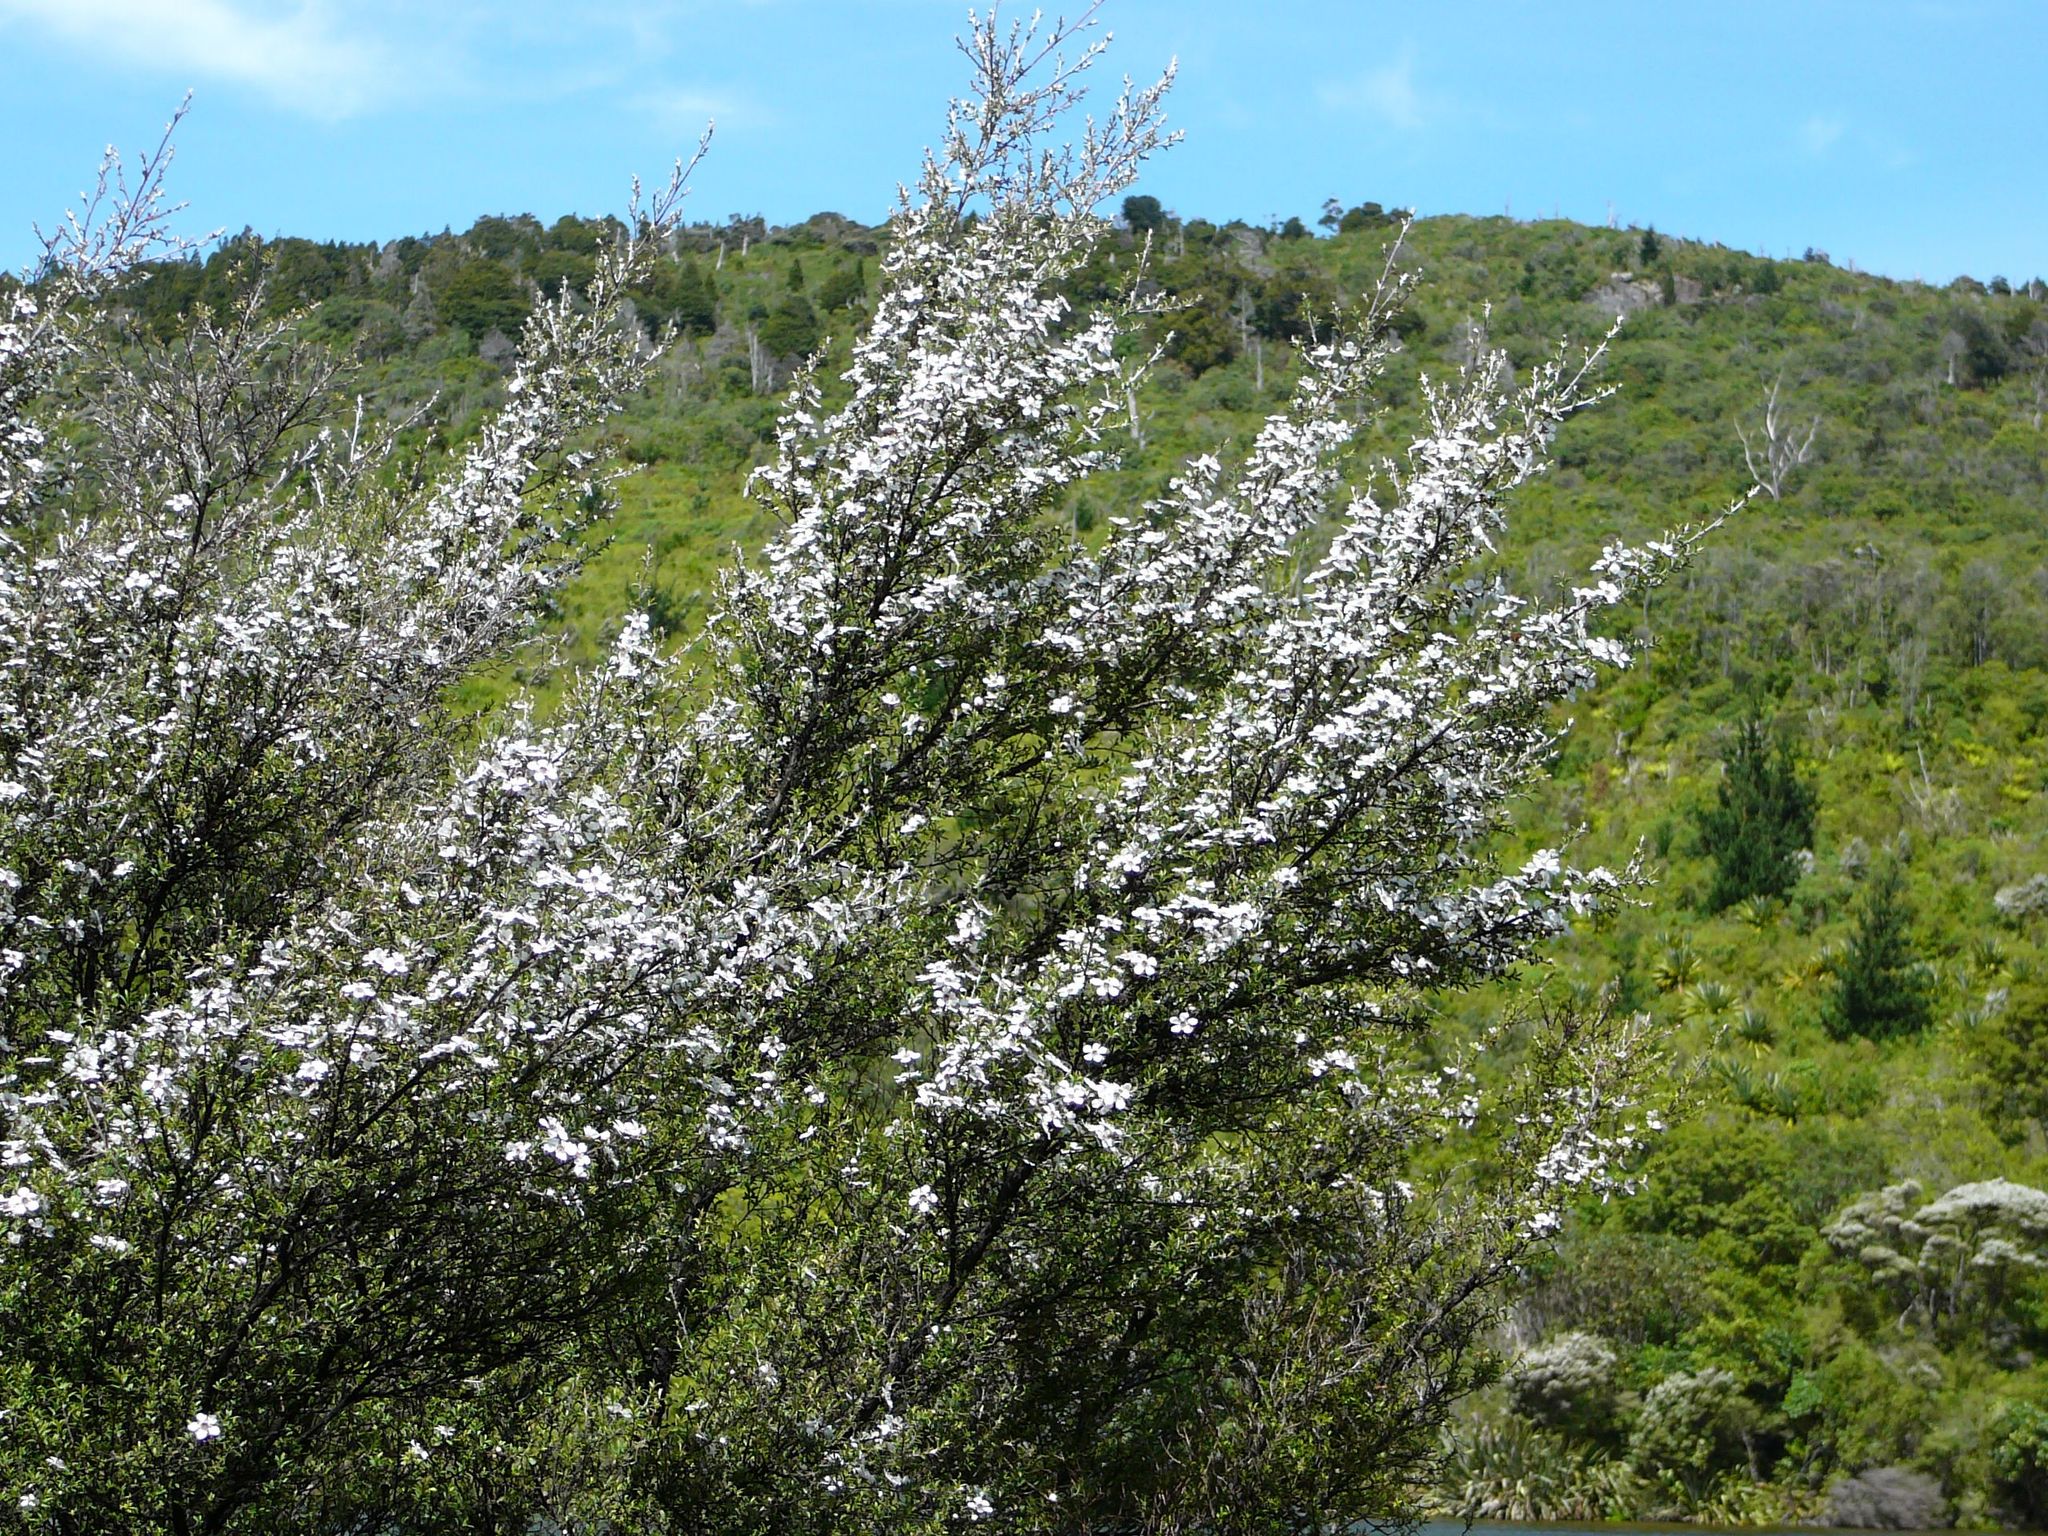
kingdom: Plantae
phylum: Tracheophyta
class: Magnoliopsida
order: Myrtales
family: Myrtaceae
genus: Kunzea
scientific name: Kunzea ericoides
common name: Burgan
